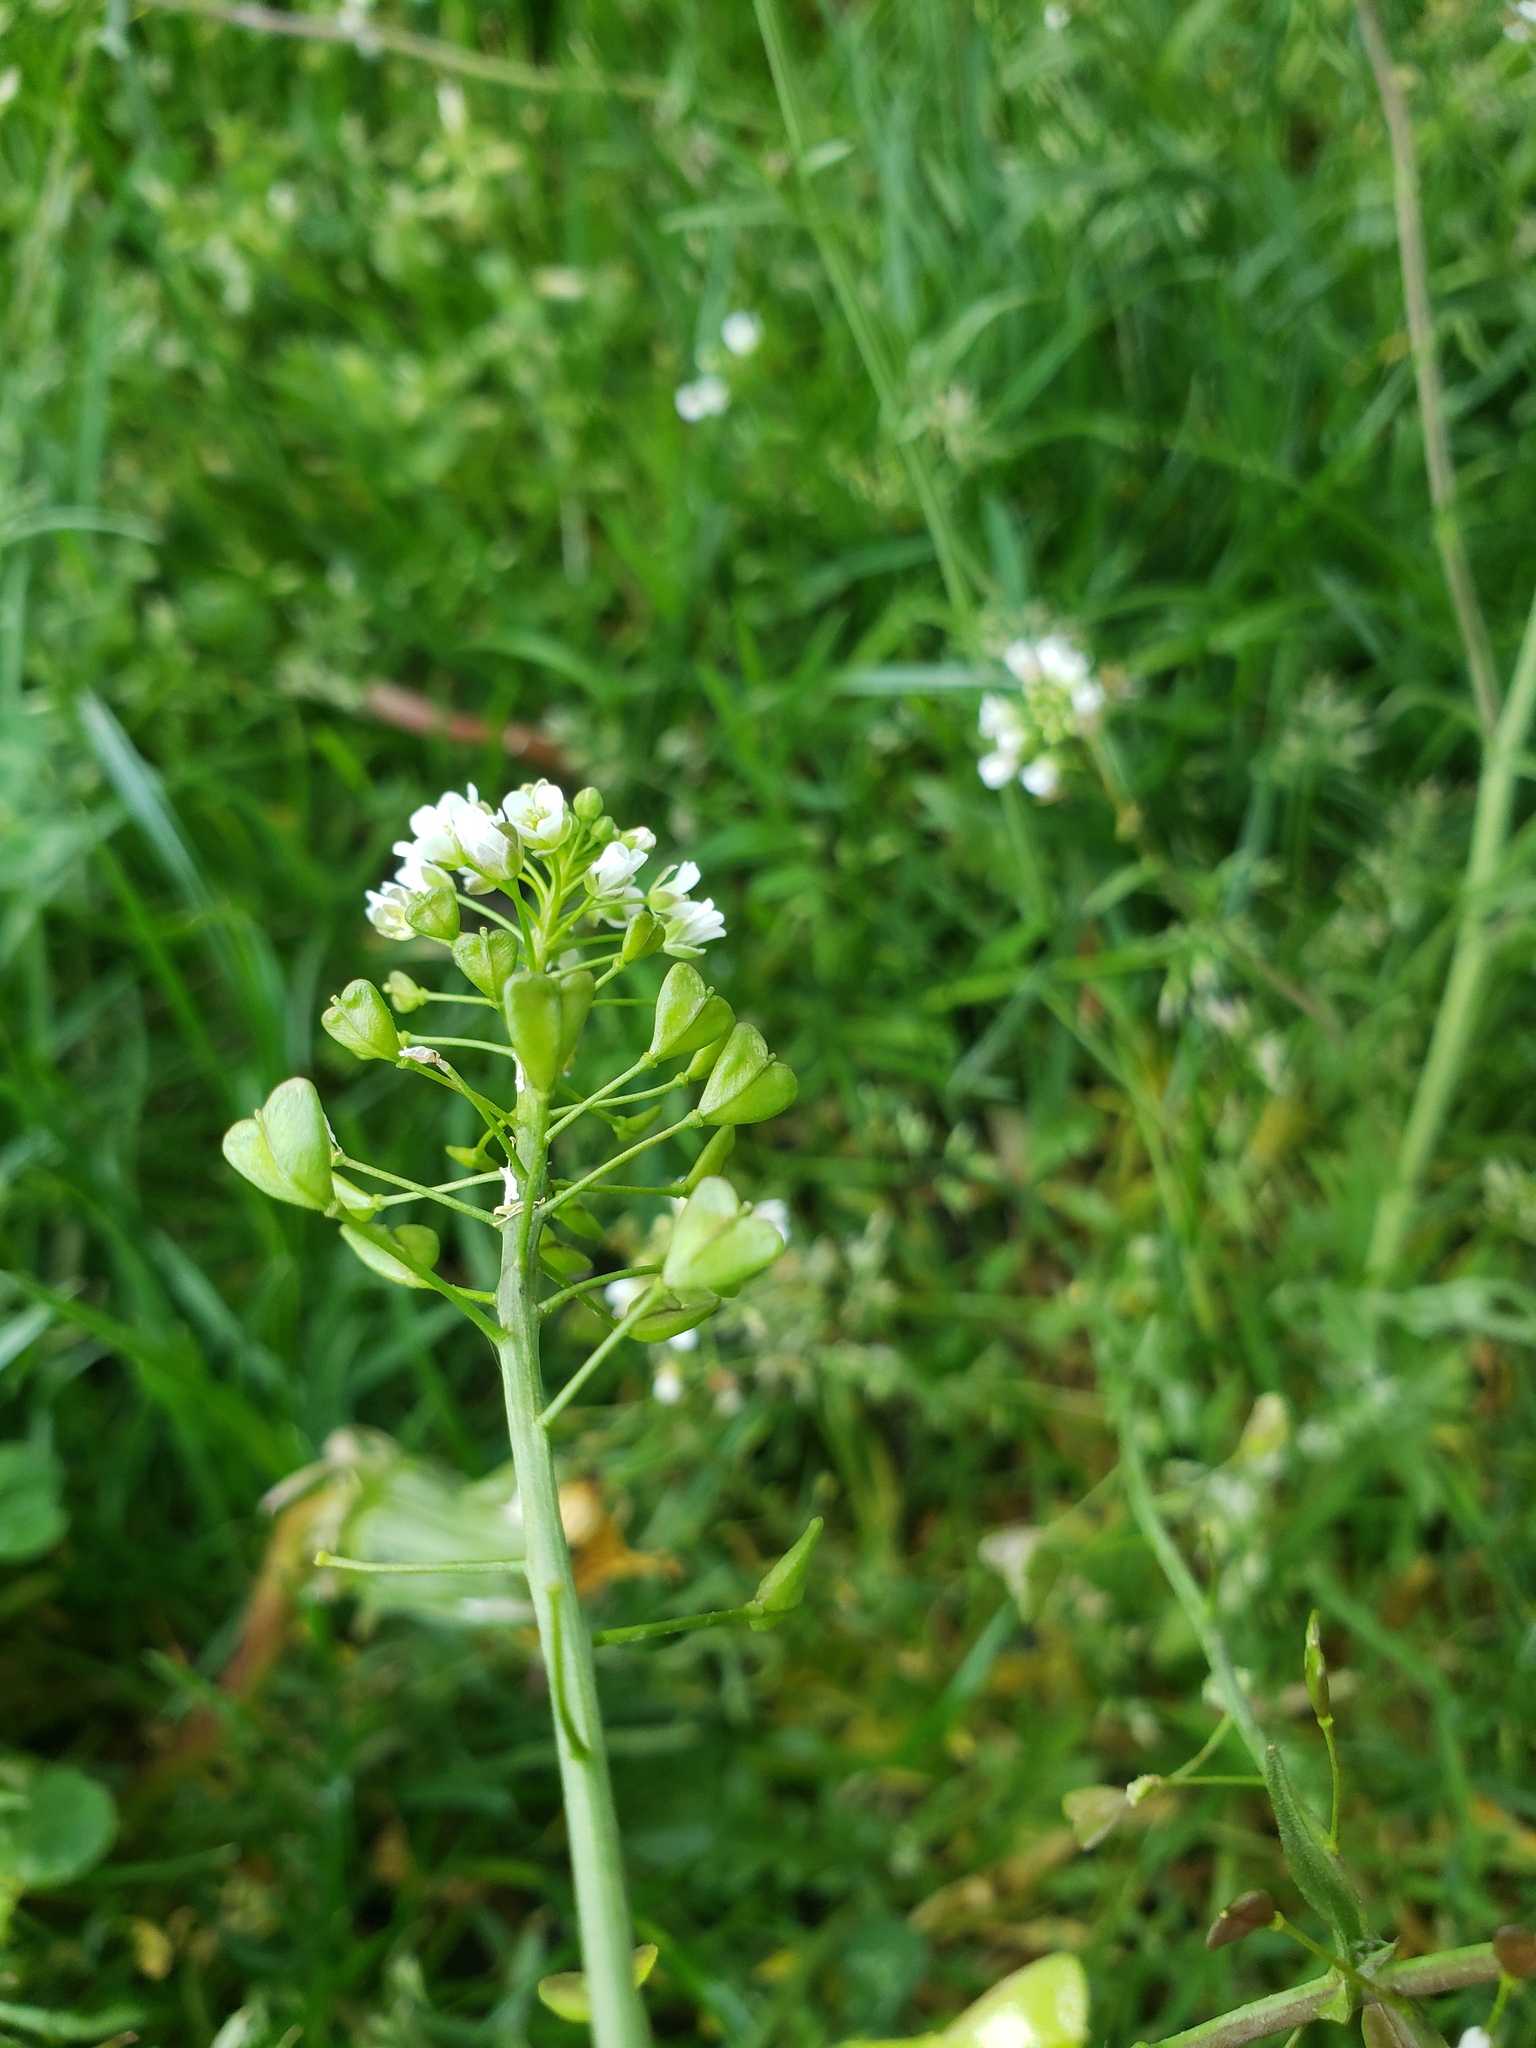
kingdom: Plantae
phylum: Tracheophyta
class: Magnoliopsida
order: Brassicales
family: Brassicaceae
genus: Capsella
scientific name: Capsella bursa-pastoris
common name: Shepherd's purse
